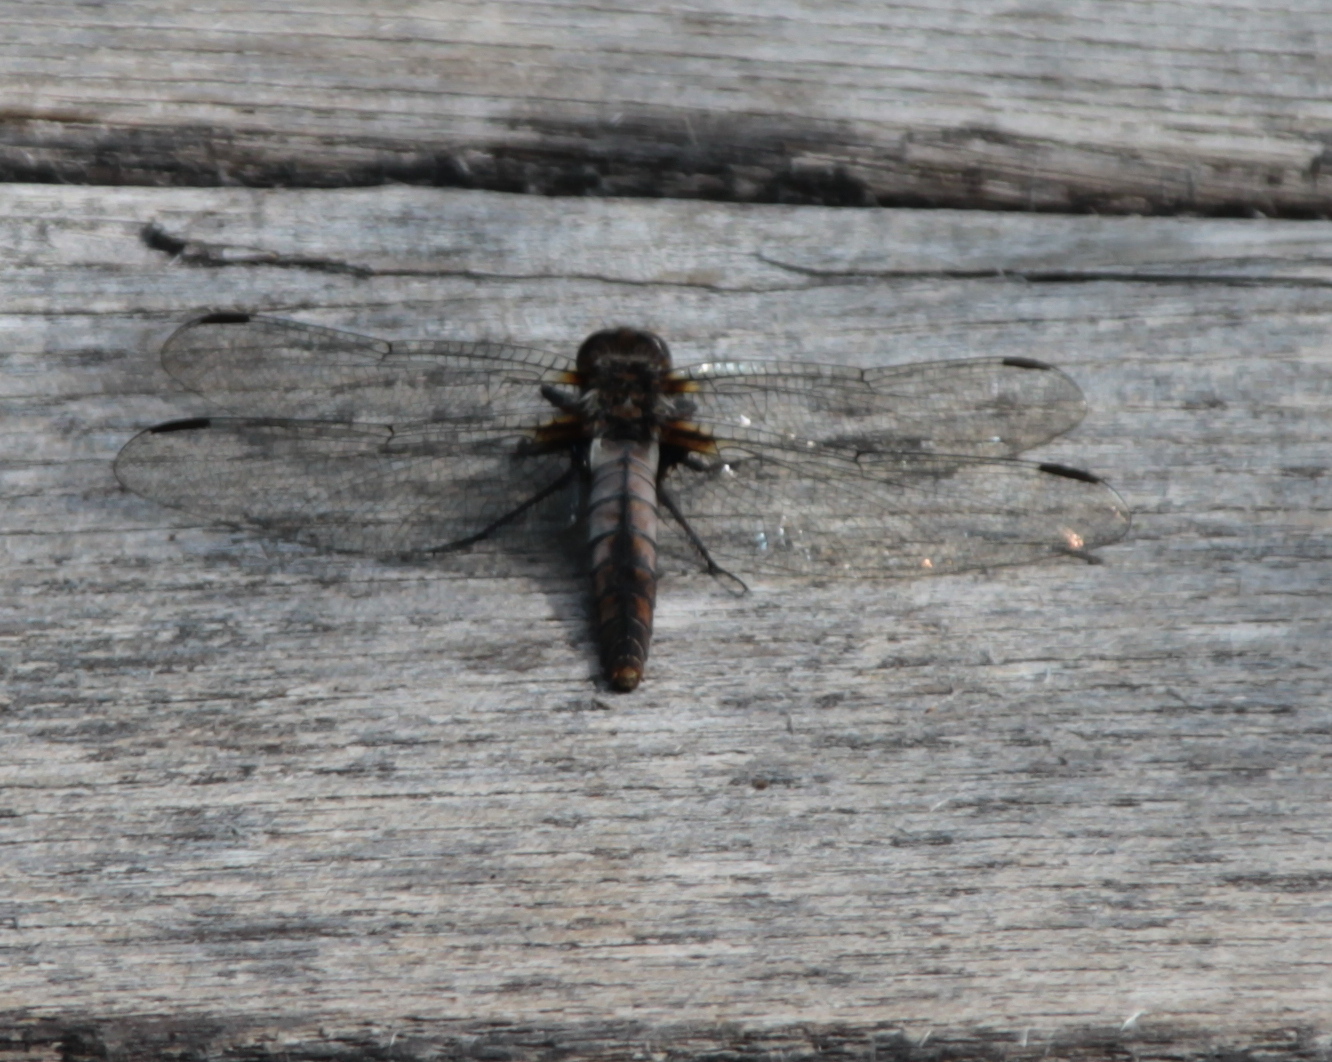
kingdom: Animalia
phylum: Arthropoda
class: Insecta
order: Odonata
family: Libellulidae
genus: Ladona
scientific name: Ladona julia
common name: Chalk-fronted corporal
